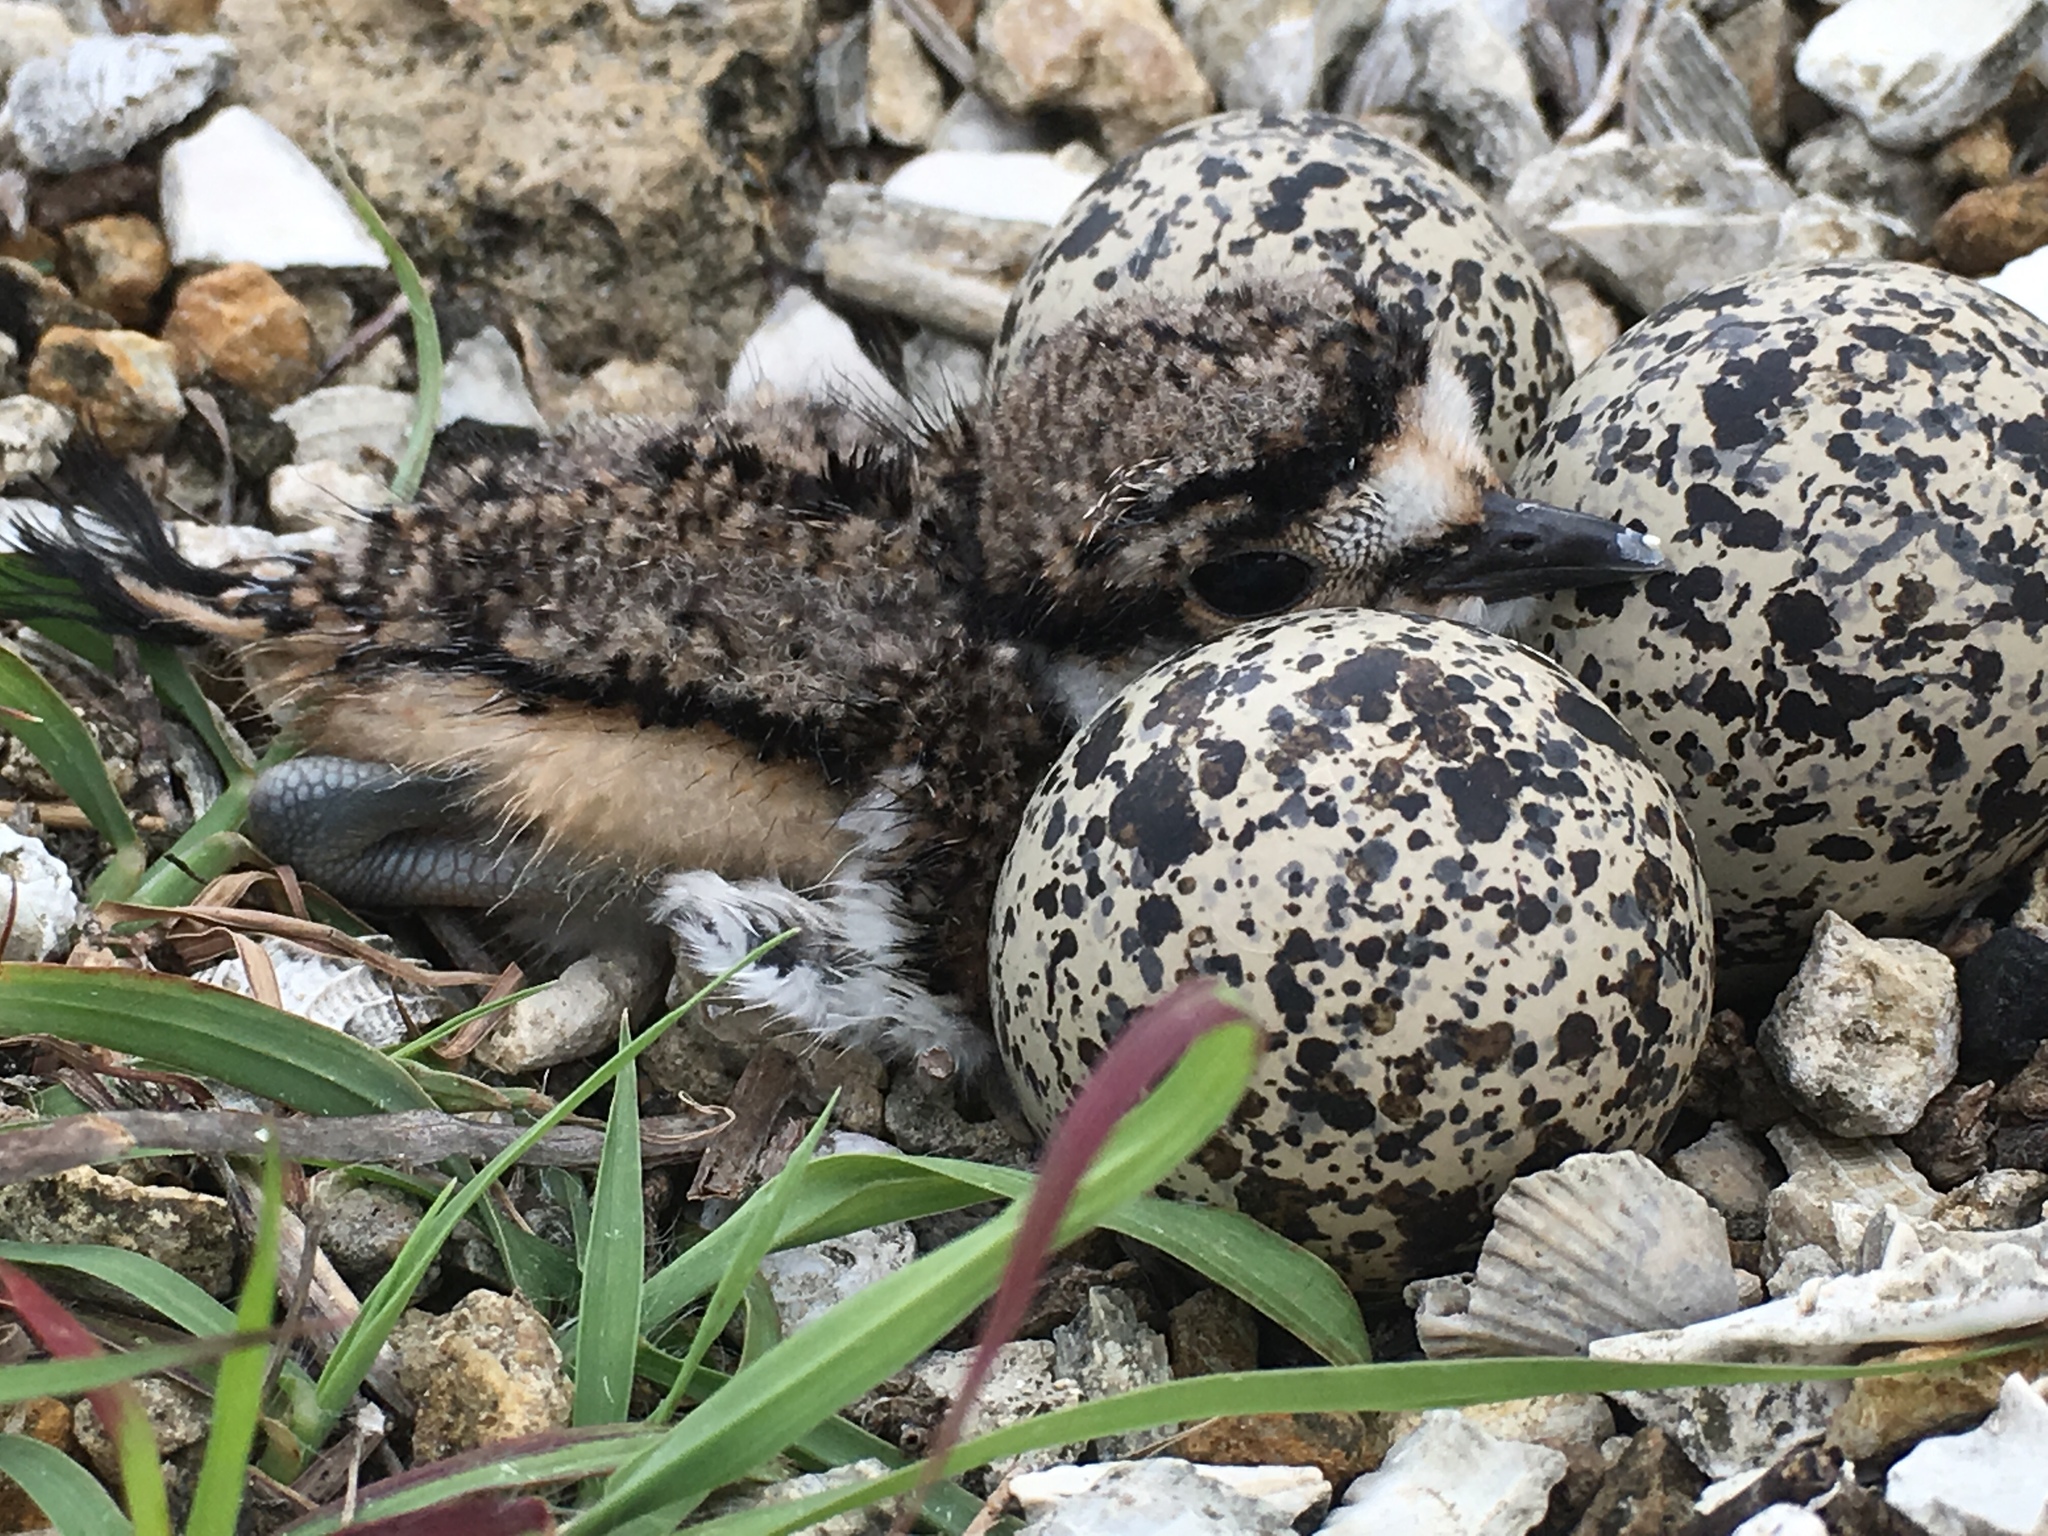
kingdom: Animalia
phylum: Chordata
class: Aves
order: Charadriiformes
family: Charadriidae
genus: Charadrius
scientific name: Charadrius vociferus
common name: Killdeer
